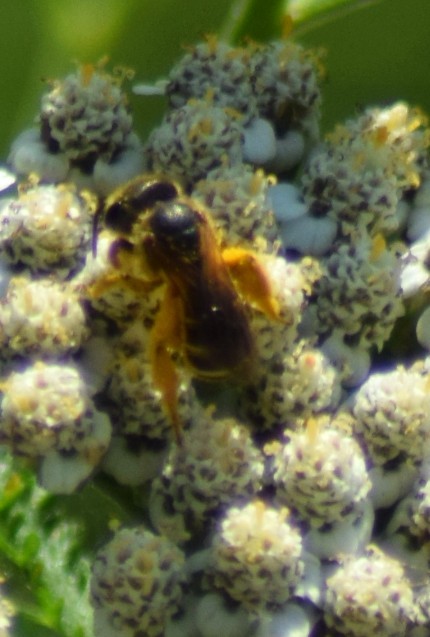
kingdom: Animalia
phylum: Arthropoda
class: Insecta
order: Hymenoptera
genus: Odontalictus
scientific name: Odontalictus
